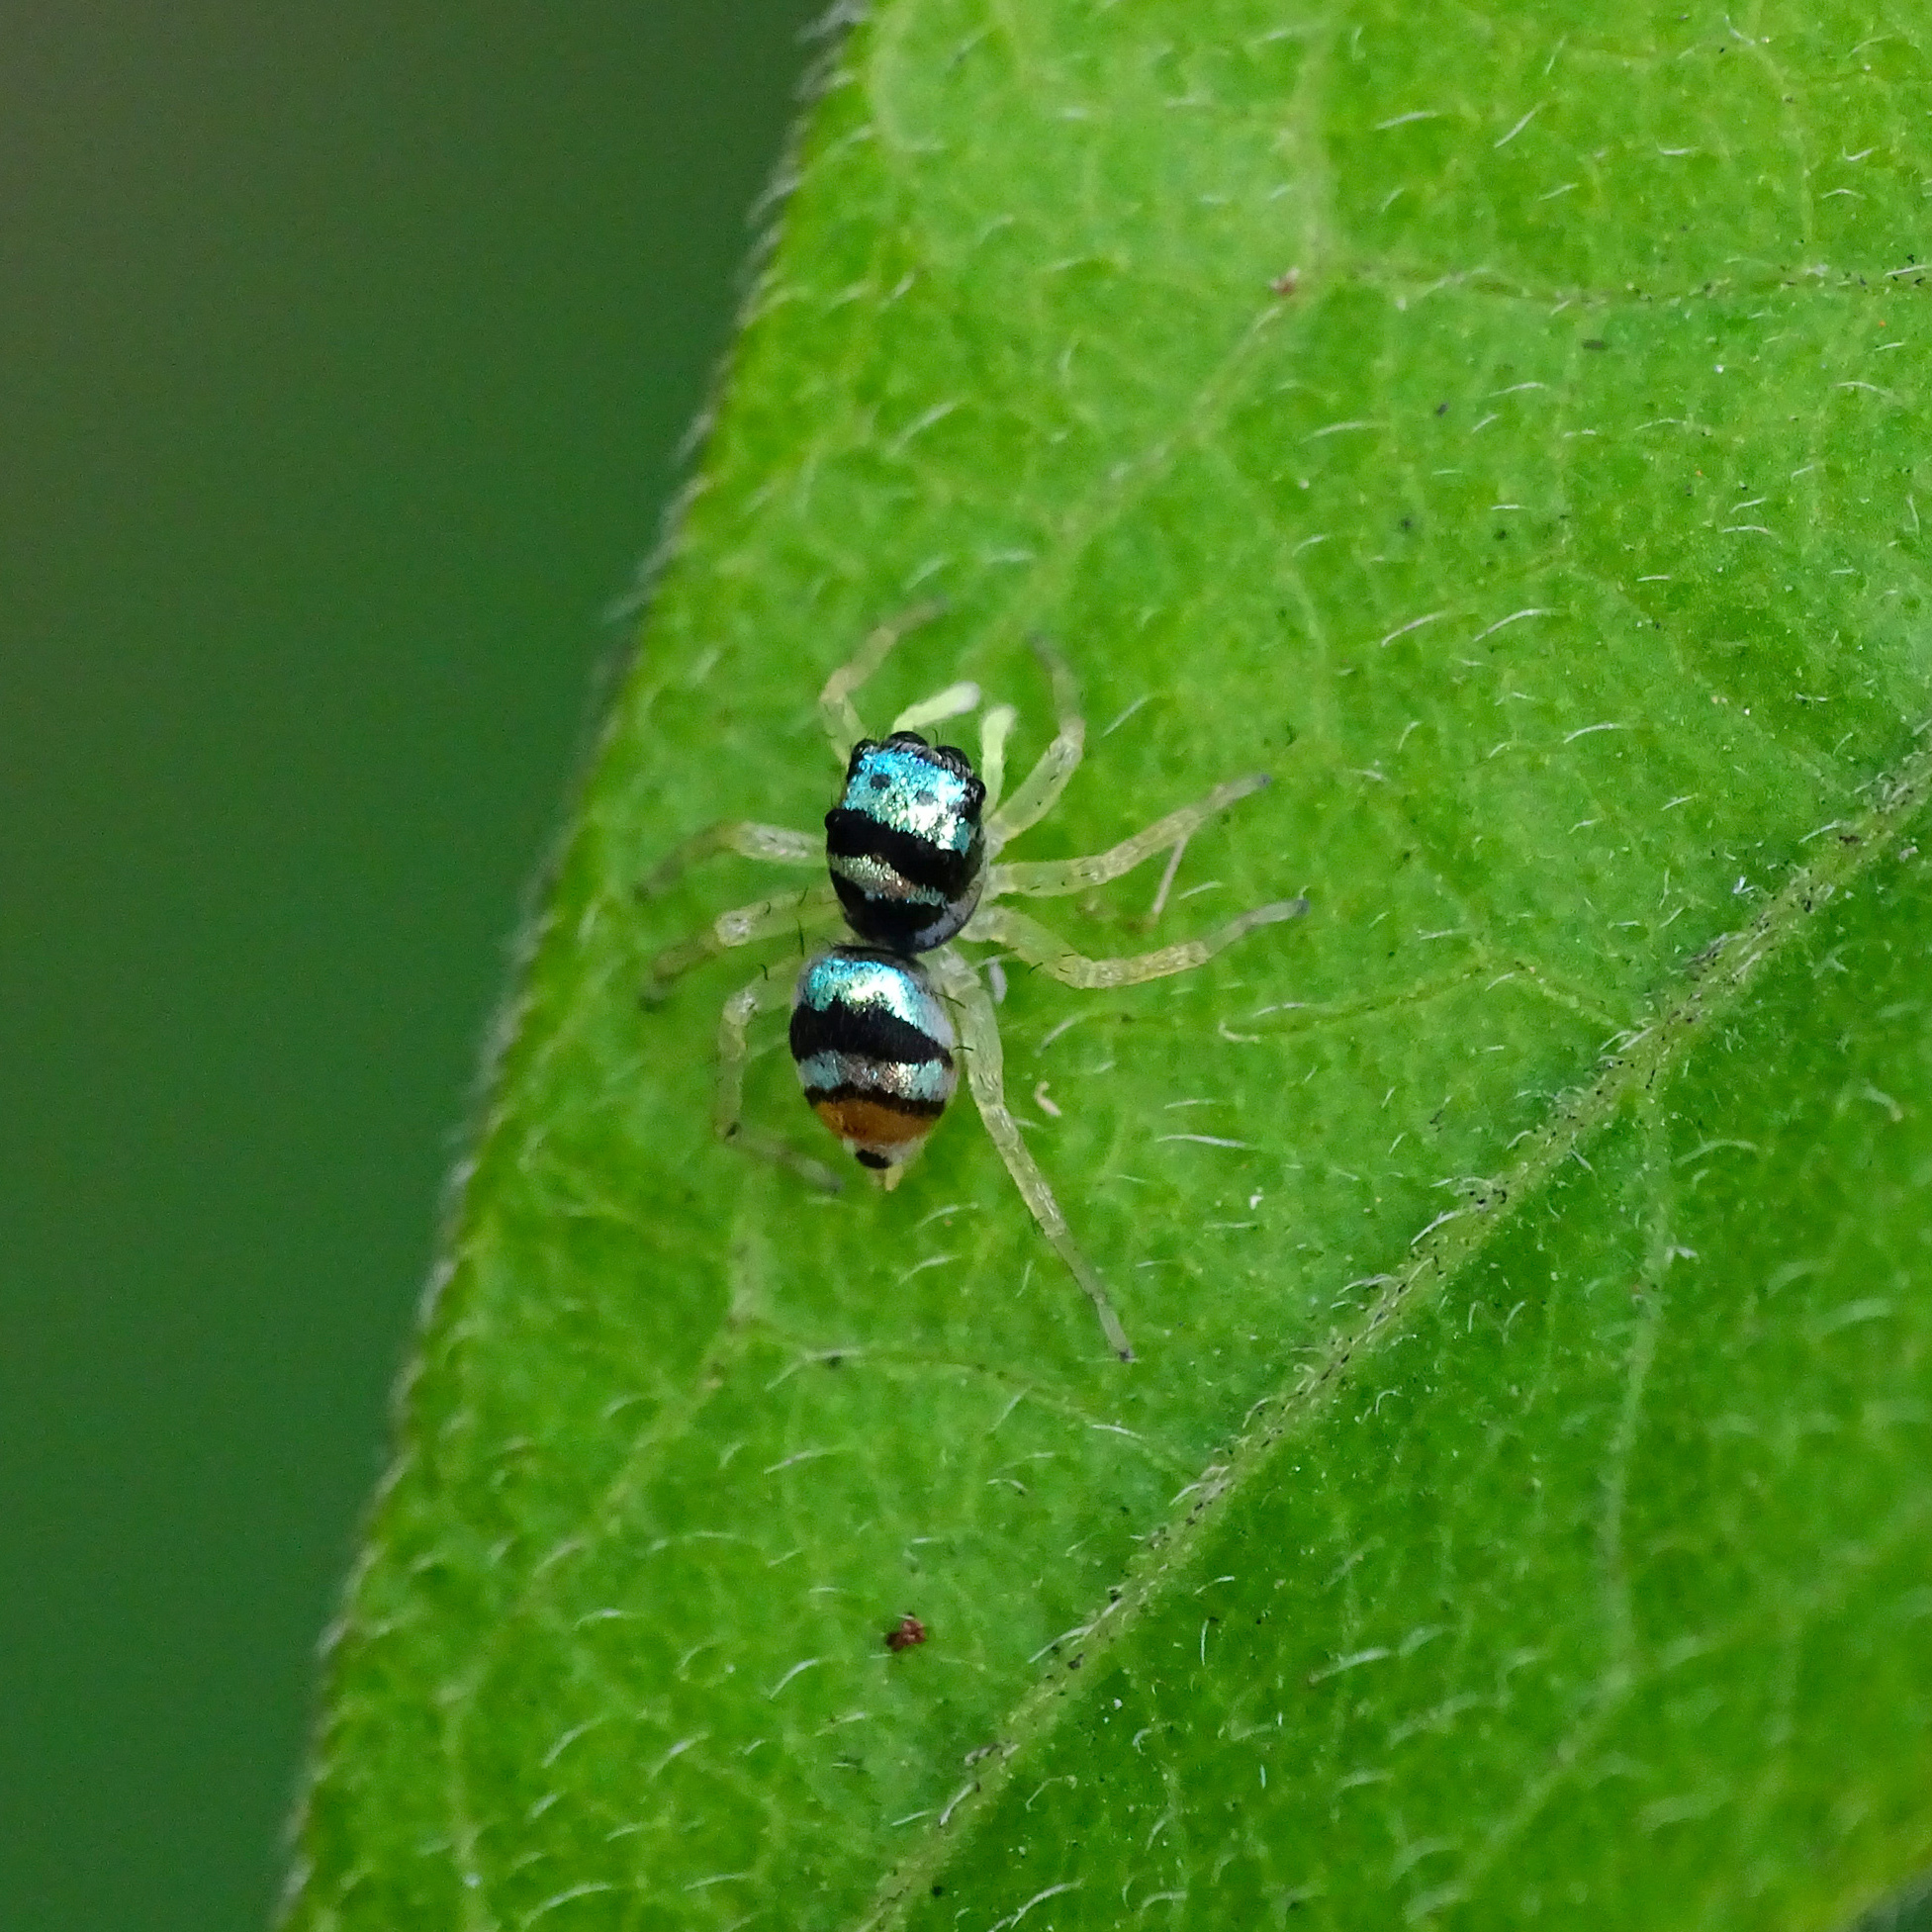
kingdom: Animalia
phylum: Arthropoda
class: Arachnida
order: Araneae
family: Salticidae
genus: Phintella
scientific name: Phintella vittata
